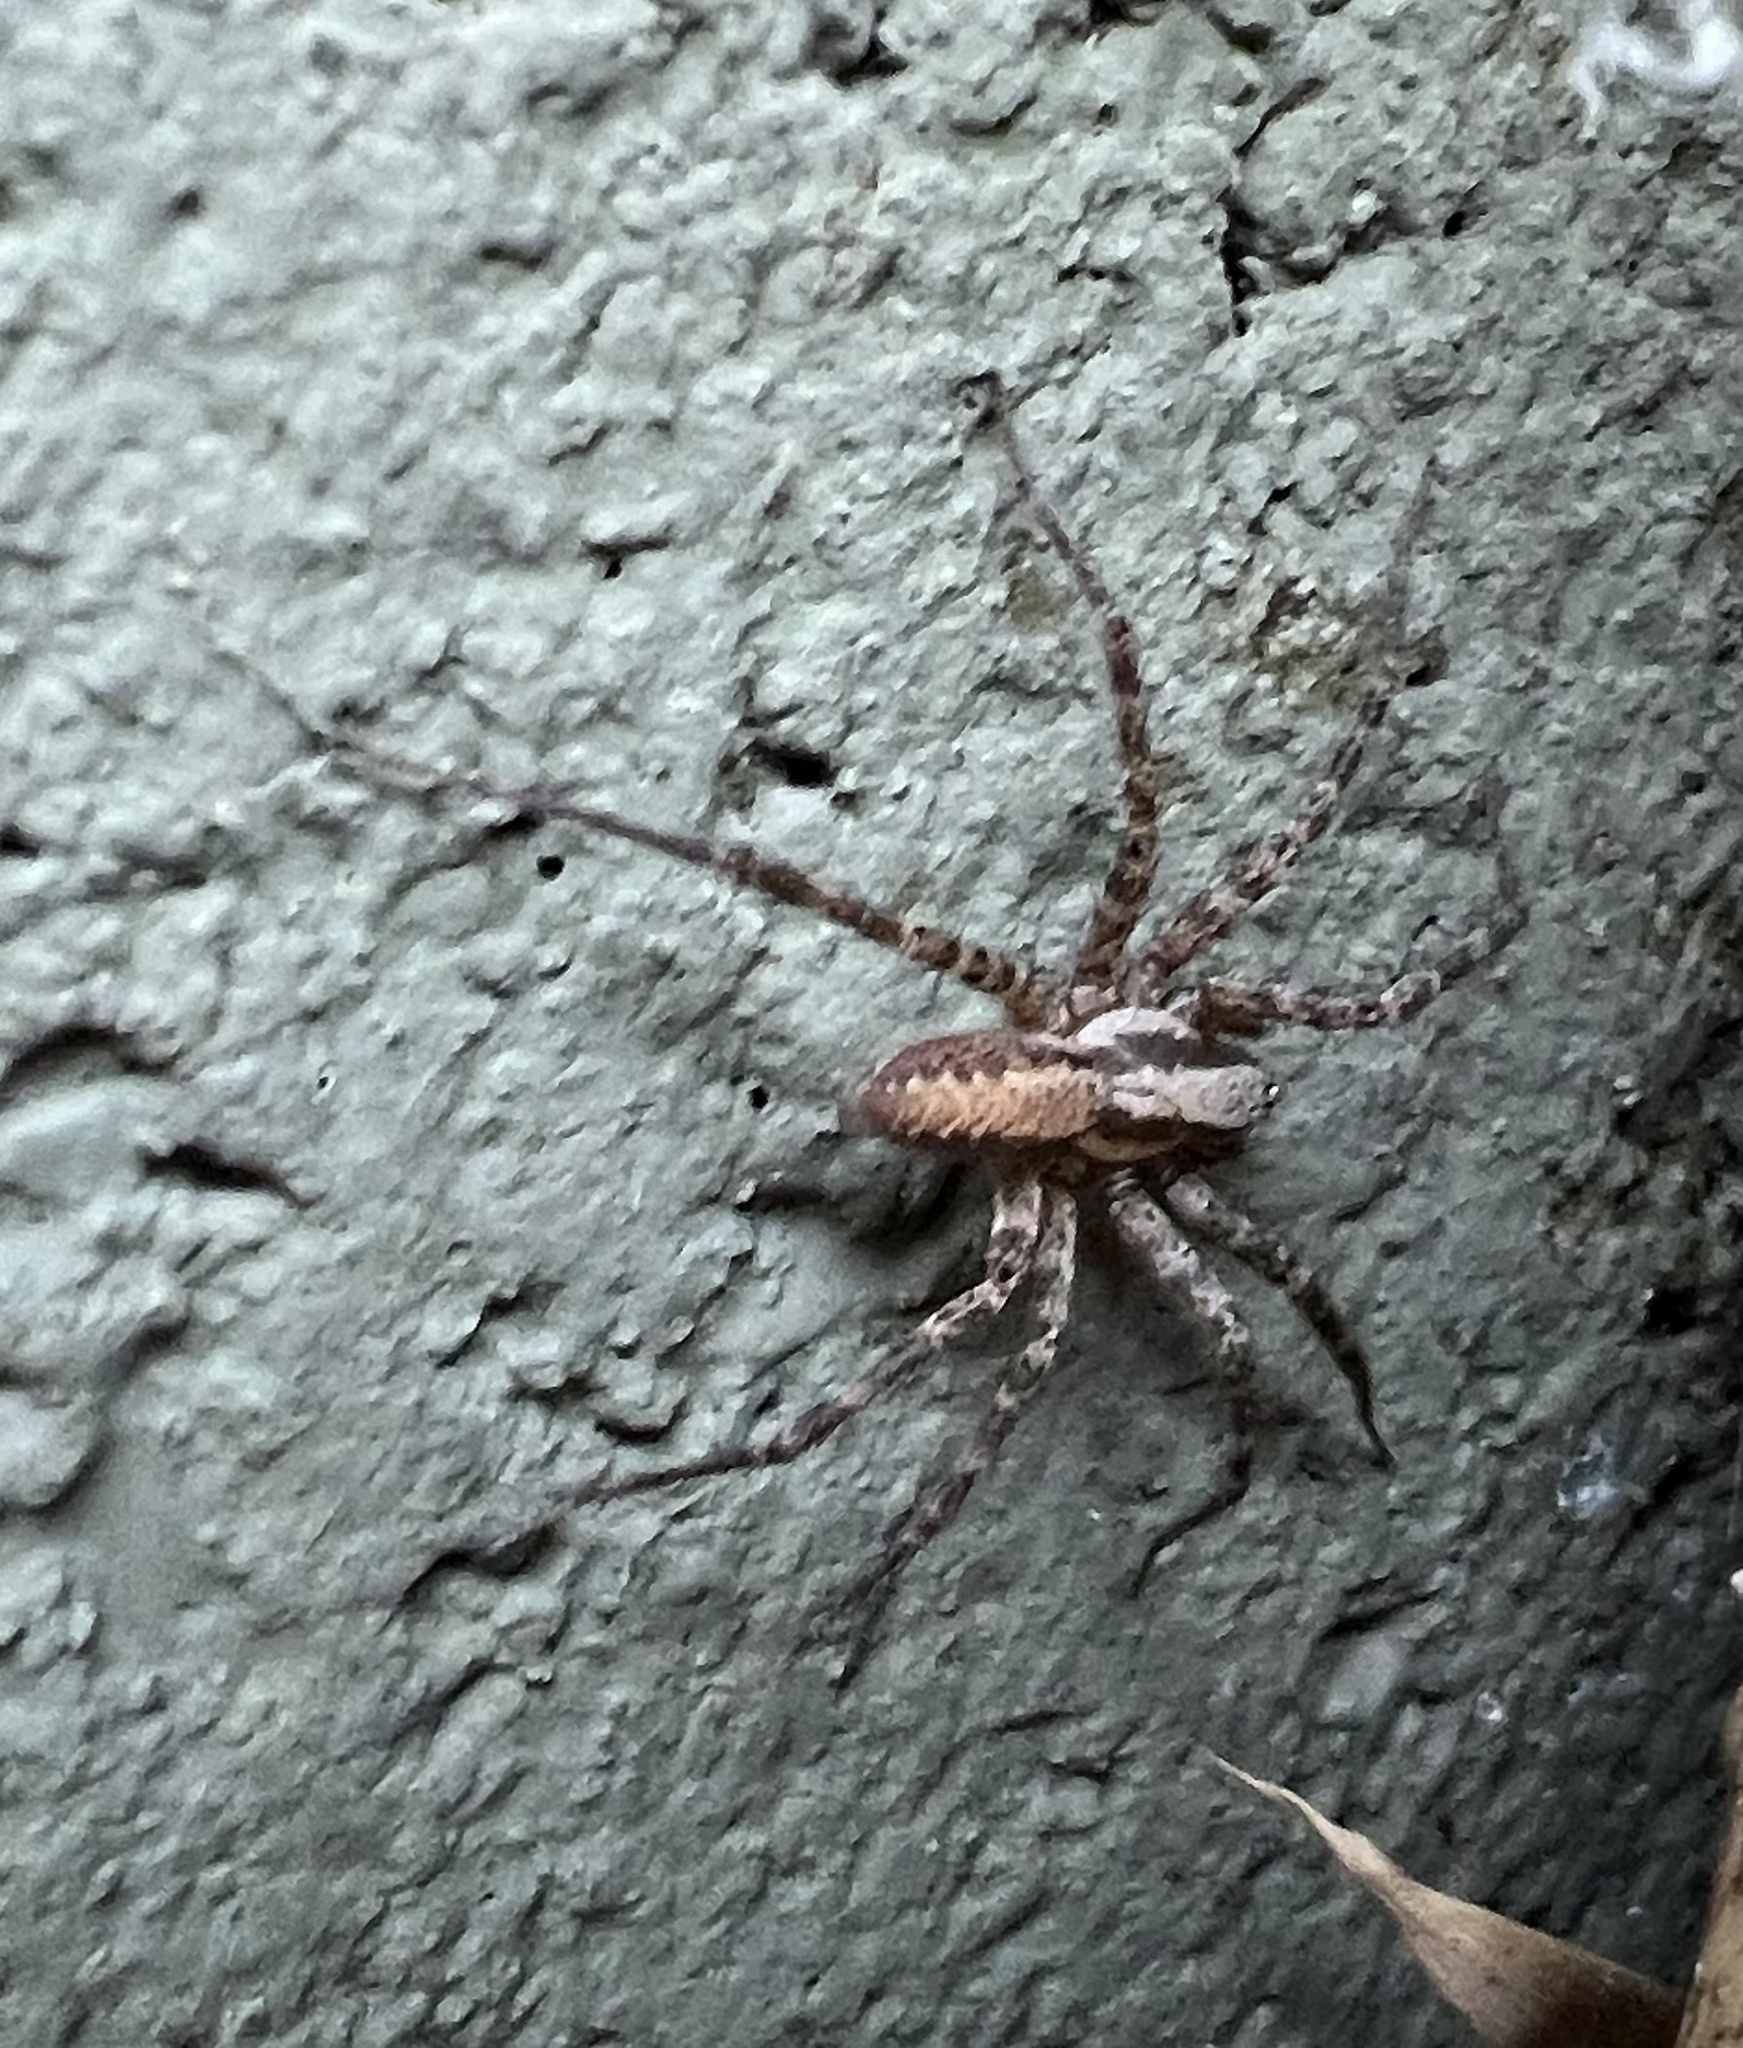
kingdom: Animalia
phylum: Arthropoda
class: Arachnida
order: Araneae
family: Agelenidae
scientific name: Agelenidae
